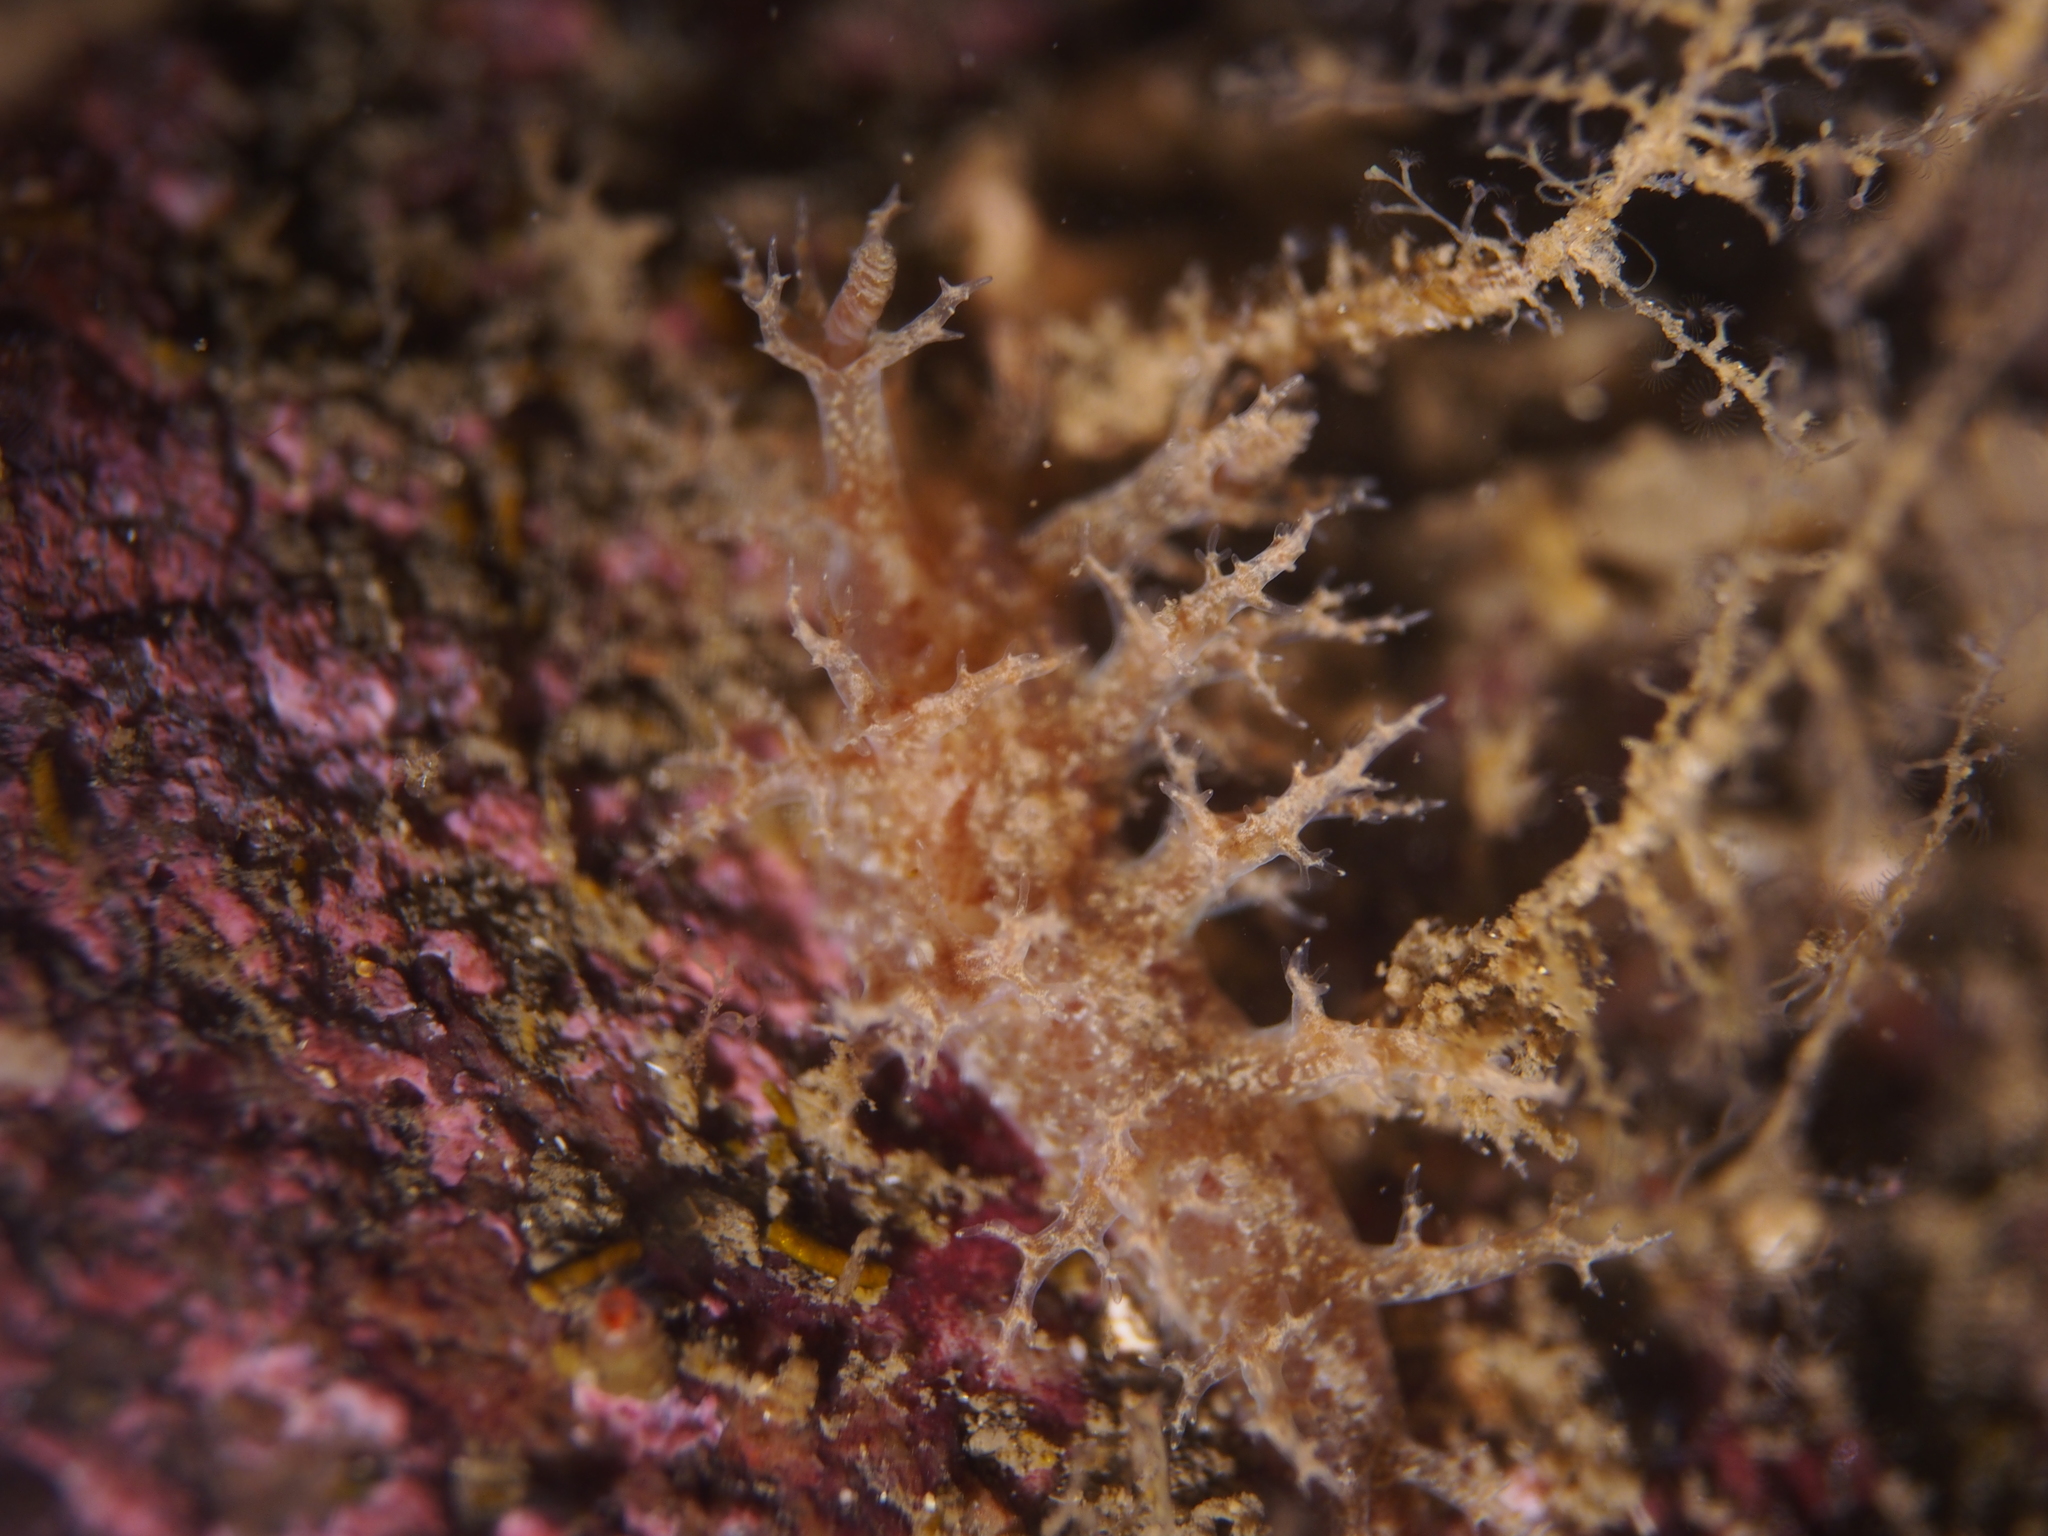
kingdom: Animalia
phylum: Mollusca
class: Gastropoda
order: Nudibranchia
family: Dendronotidae
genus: Dendronotus
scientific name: Dendronotus frondosus
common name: Bushy-backed nudibranch
